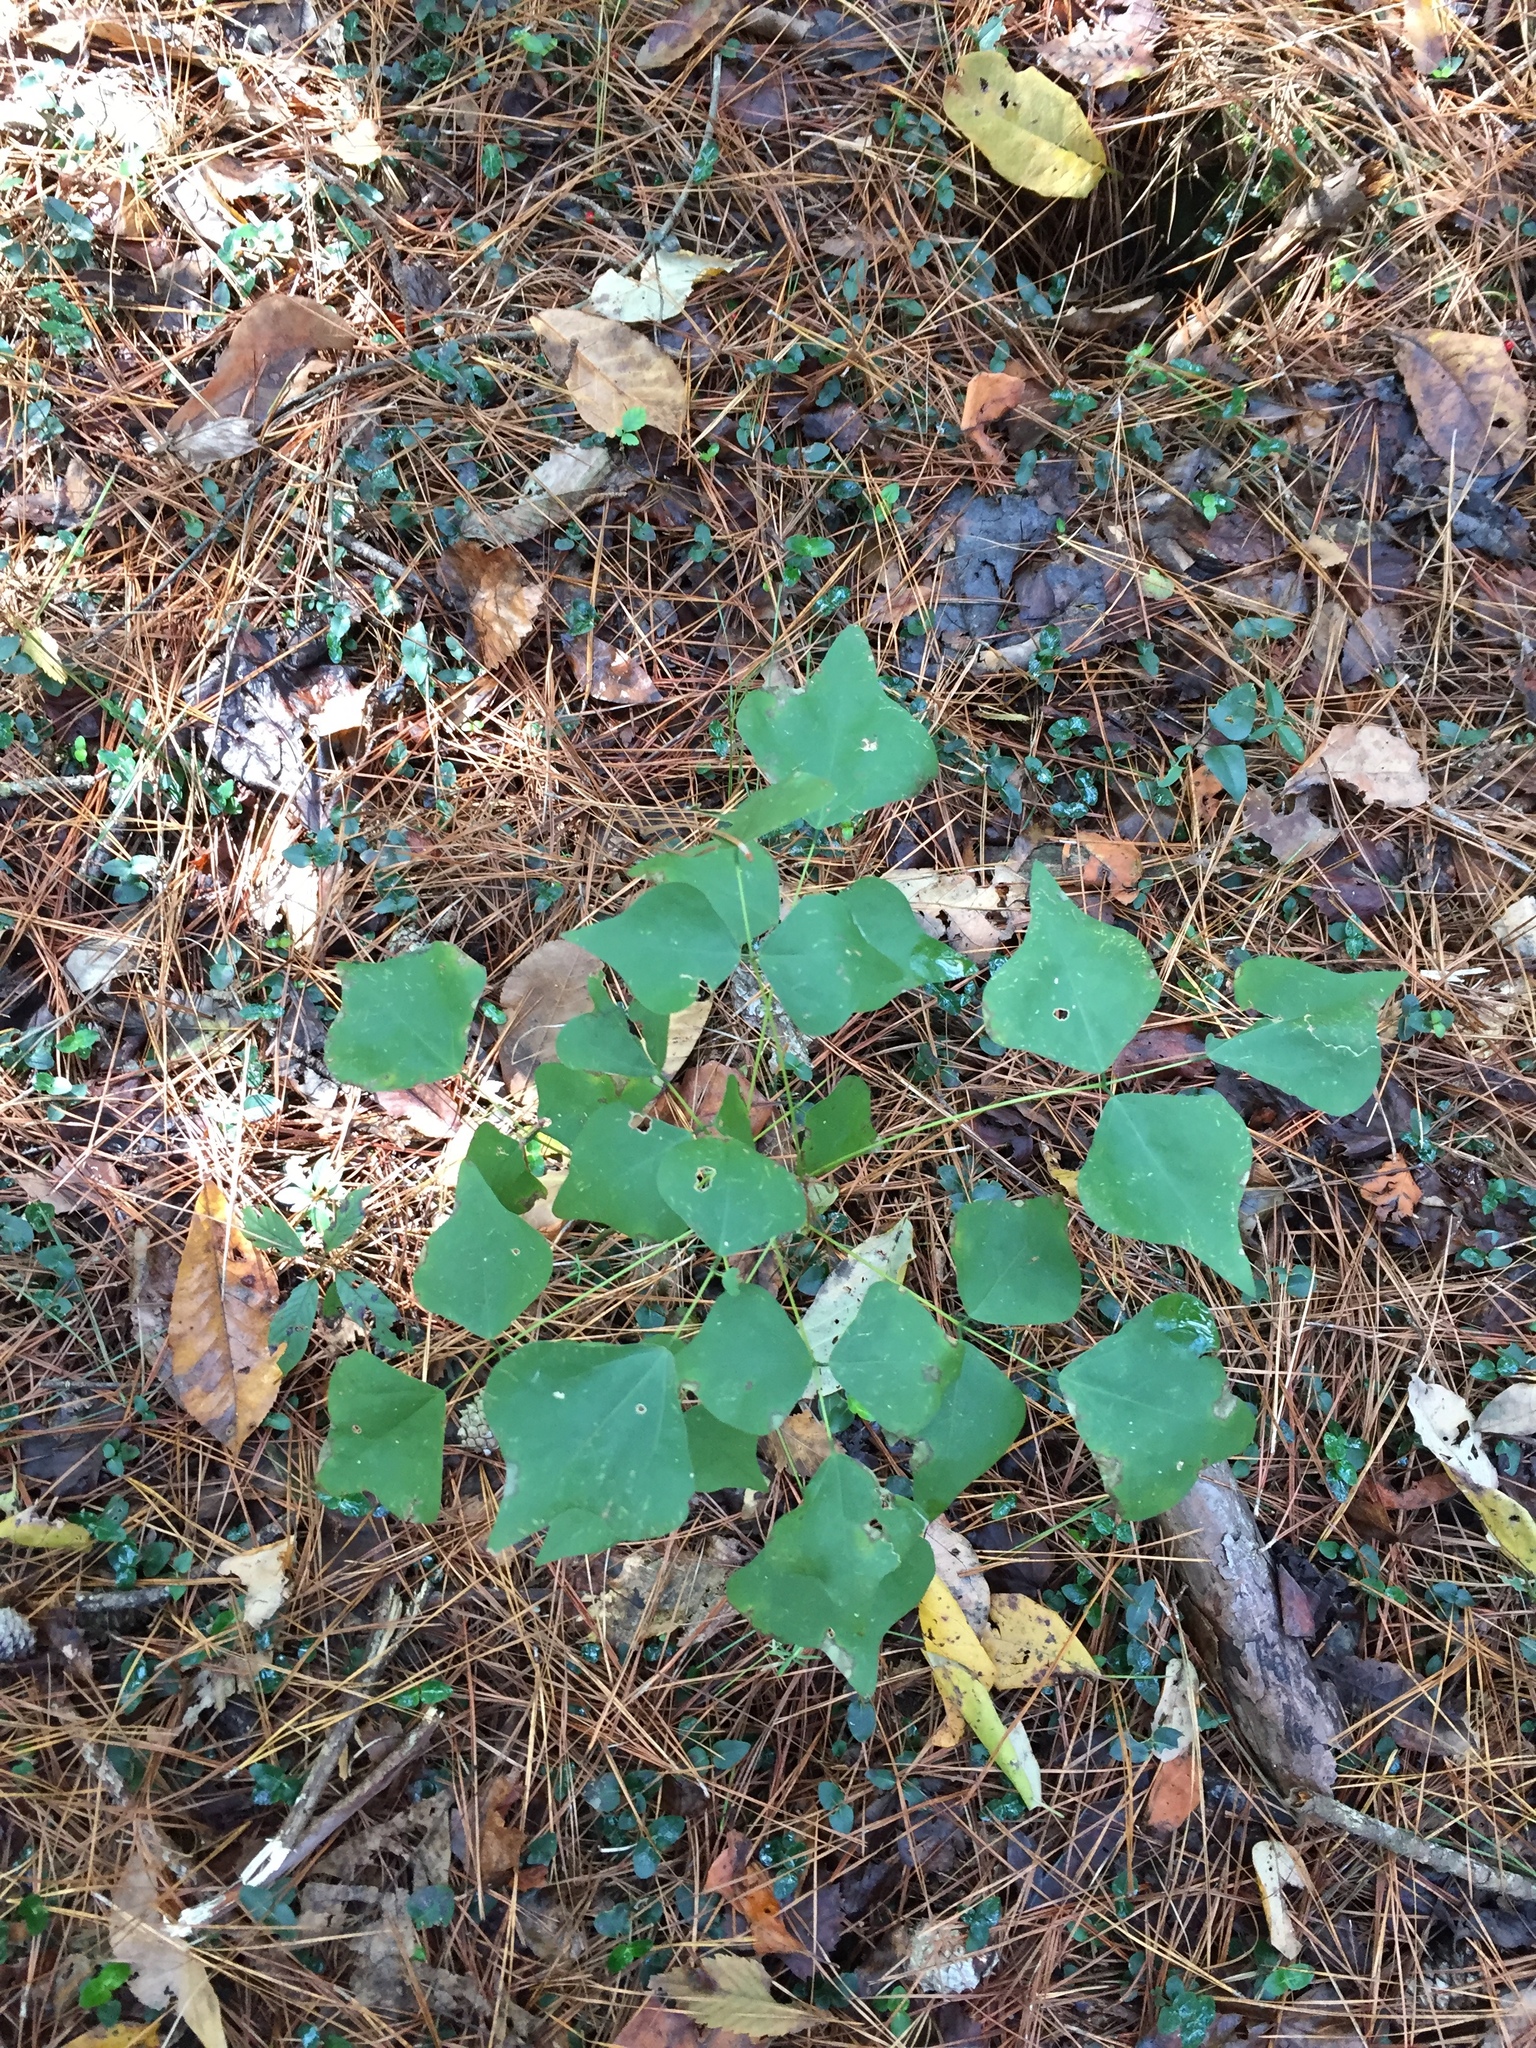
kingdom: Plantae
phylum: Tracheophyta
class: Magnoliopsida
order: Fabales
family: Fabaceae
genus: Erythrina
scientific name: Erythrina herbacea
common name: Coral-bean
